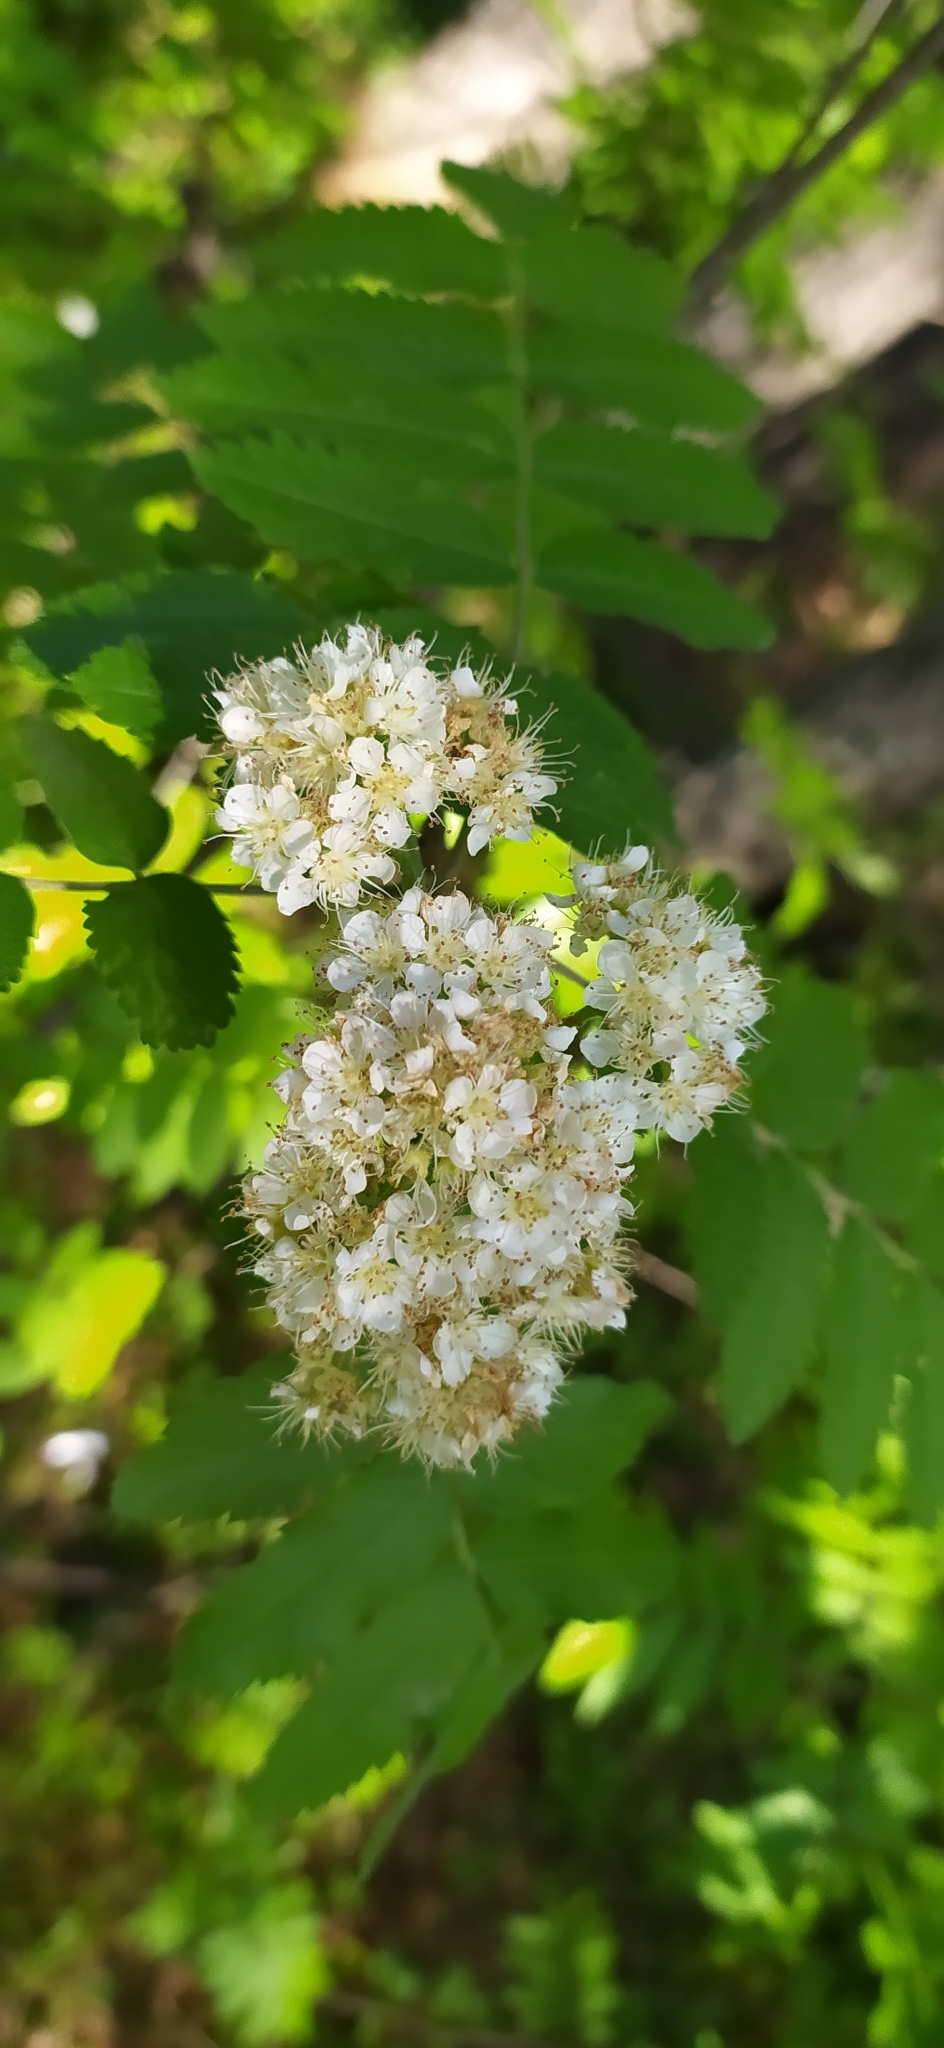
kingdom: Plantae
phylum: Tracheophyta
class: Magnoliopsida
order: Rosales
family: Rosaceae
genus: Sorbus
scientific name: Sorbus aucuparia
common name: Rowan
